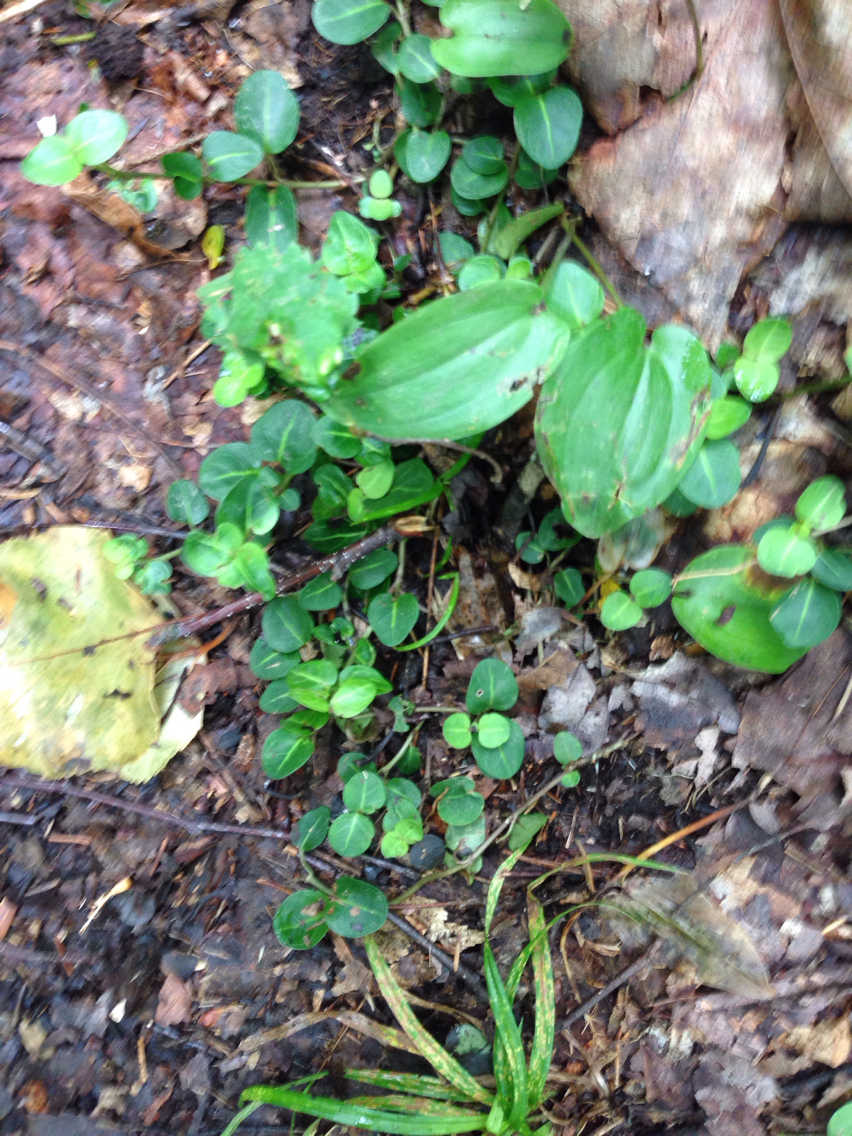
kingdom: Plantae
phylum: Tracheophyta
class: Magnoliopsida
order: Gentianales
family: Rubiaceae
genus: Mitchella
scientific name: Mitchella repens
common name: Partridge-berry
